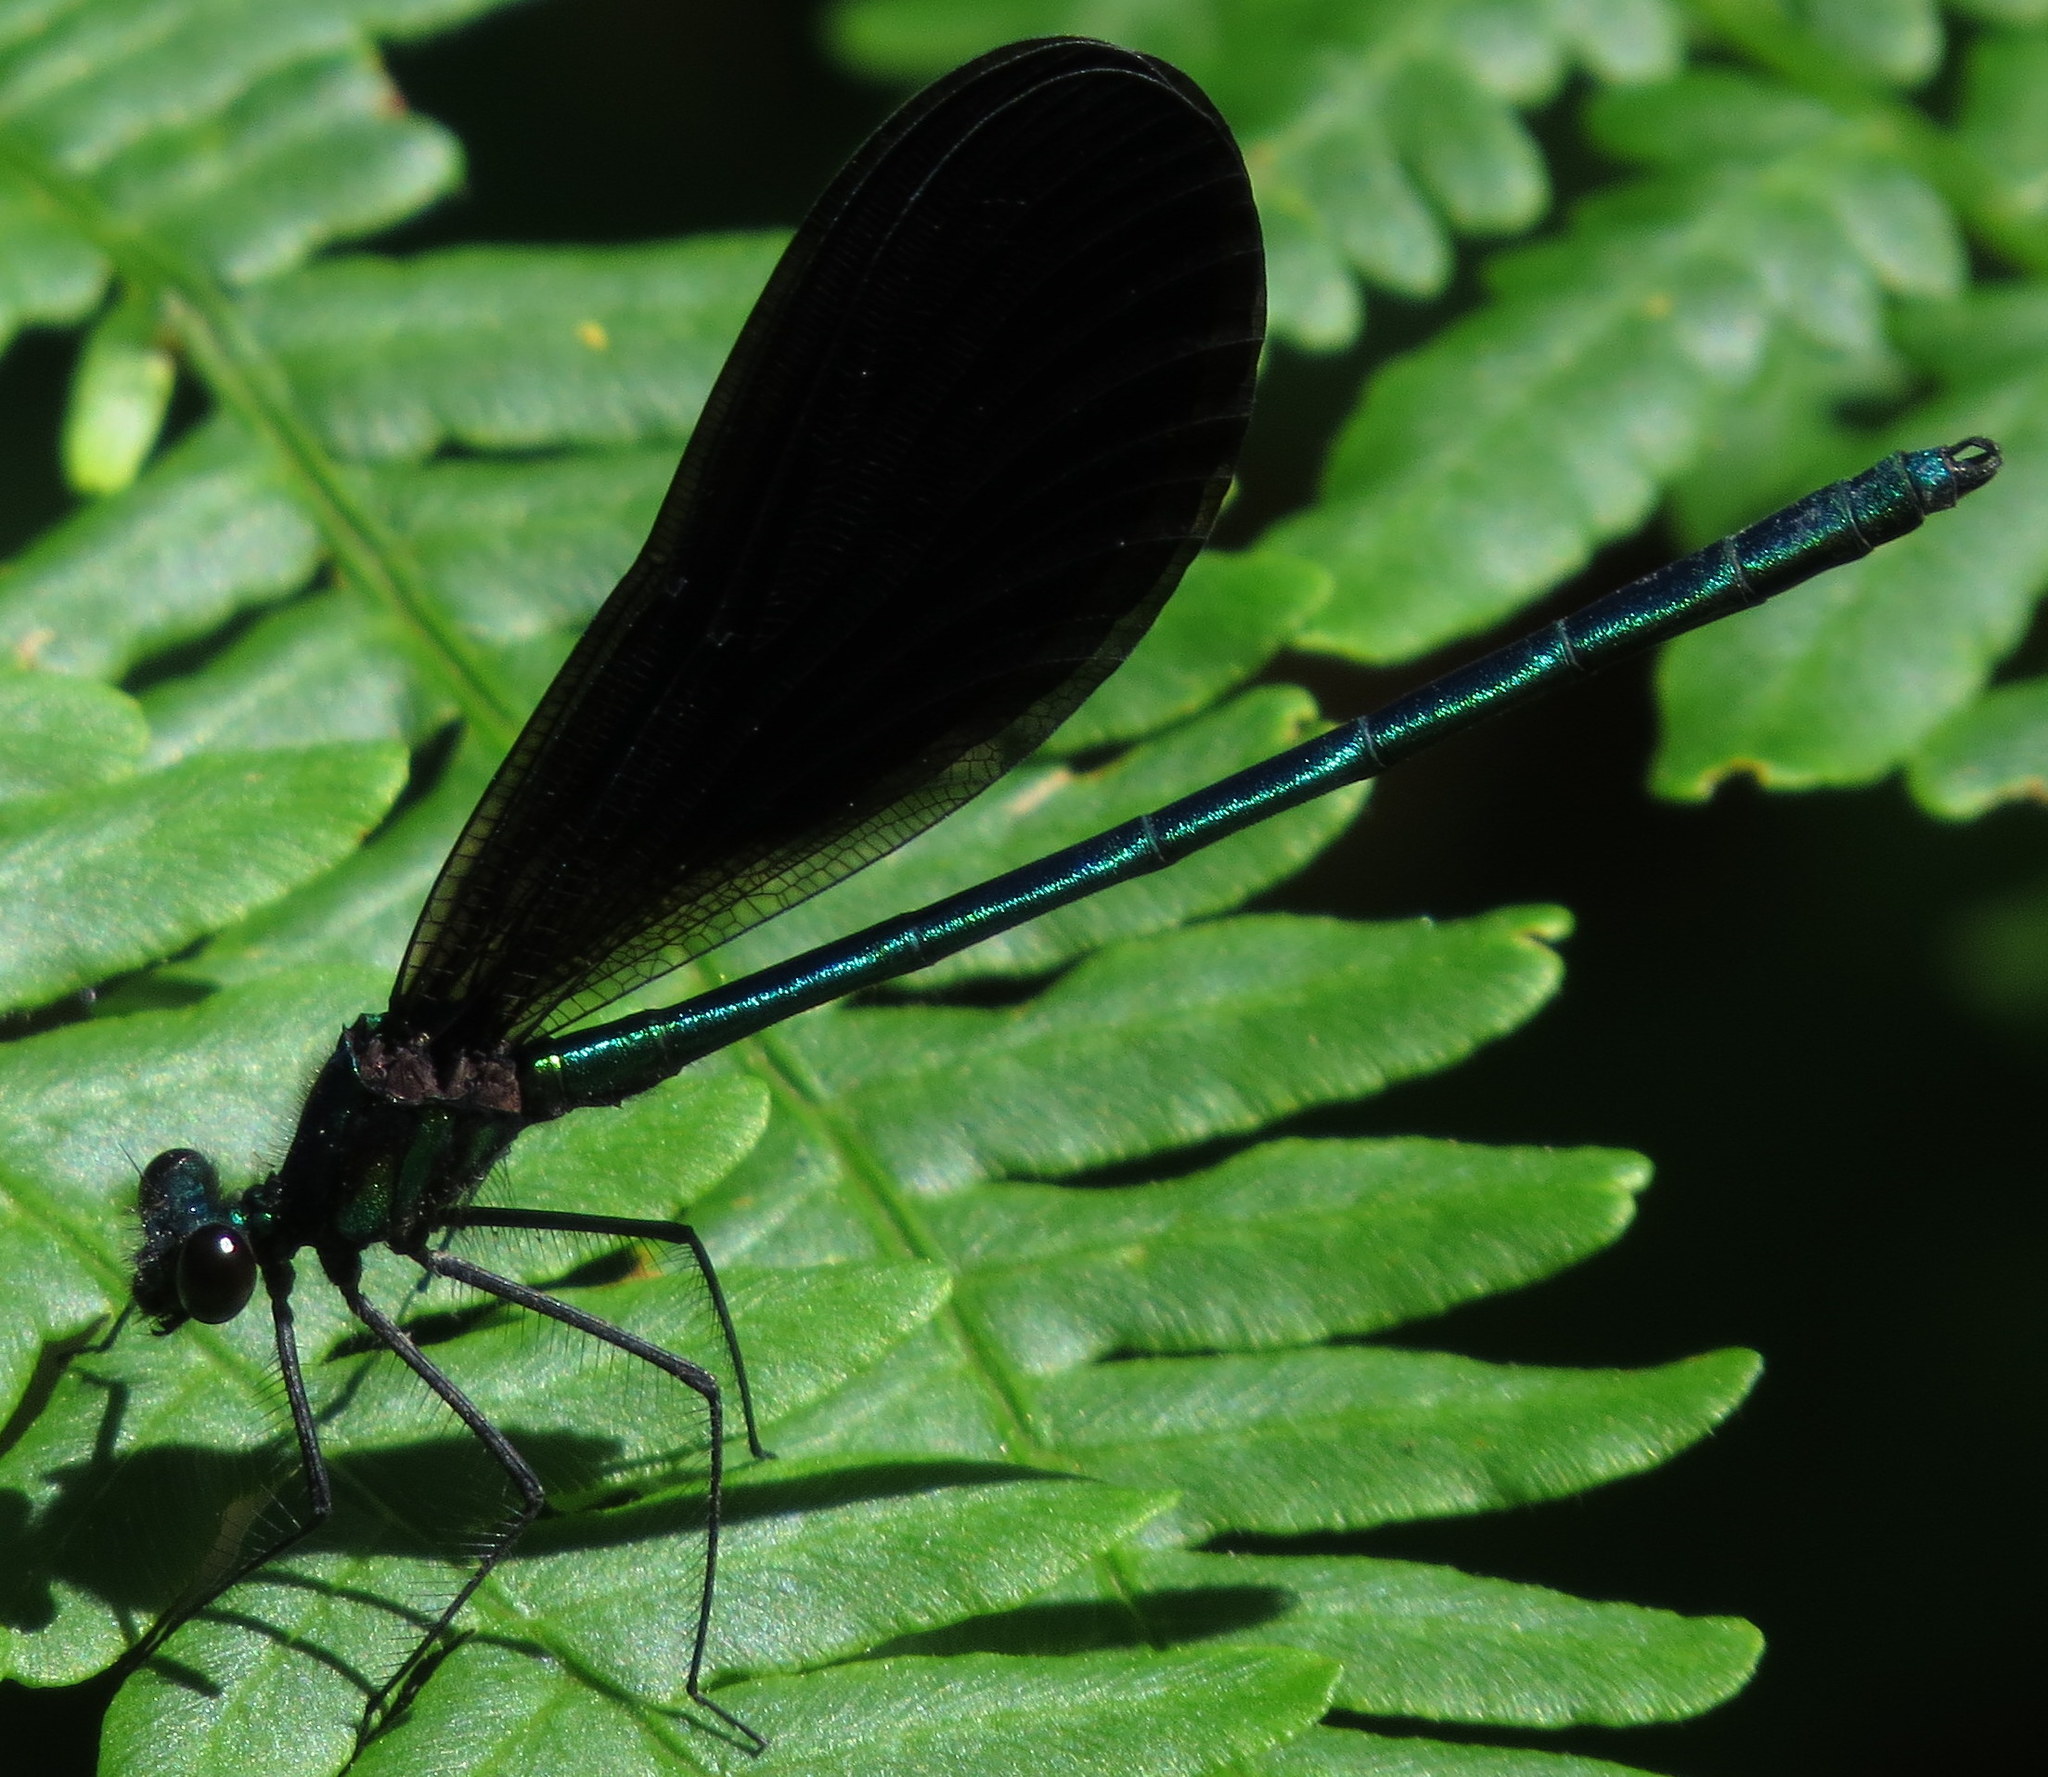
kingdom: Animalia
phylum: Arthropoda
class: Insecta
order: Odonata
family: Calopterygidae
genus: Calopteryx
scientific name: Calopteryx maculata
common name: Ebony jewelwing
